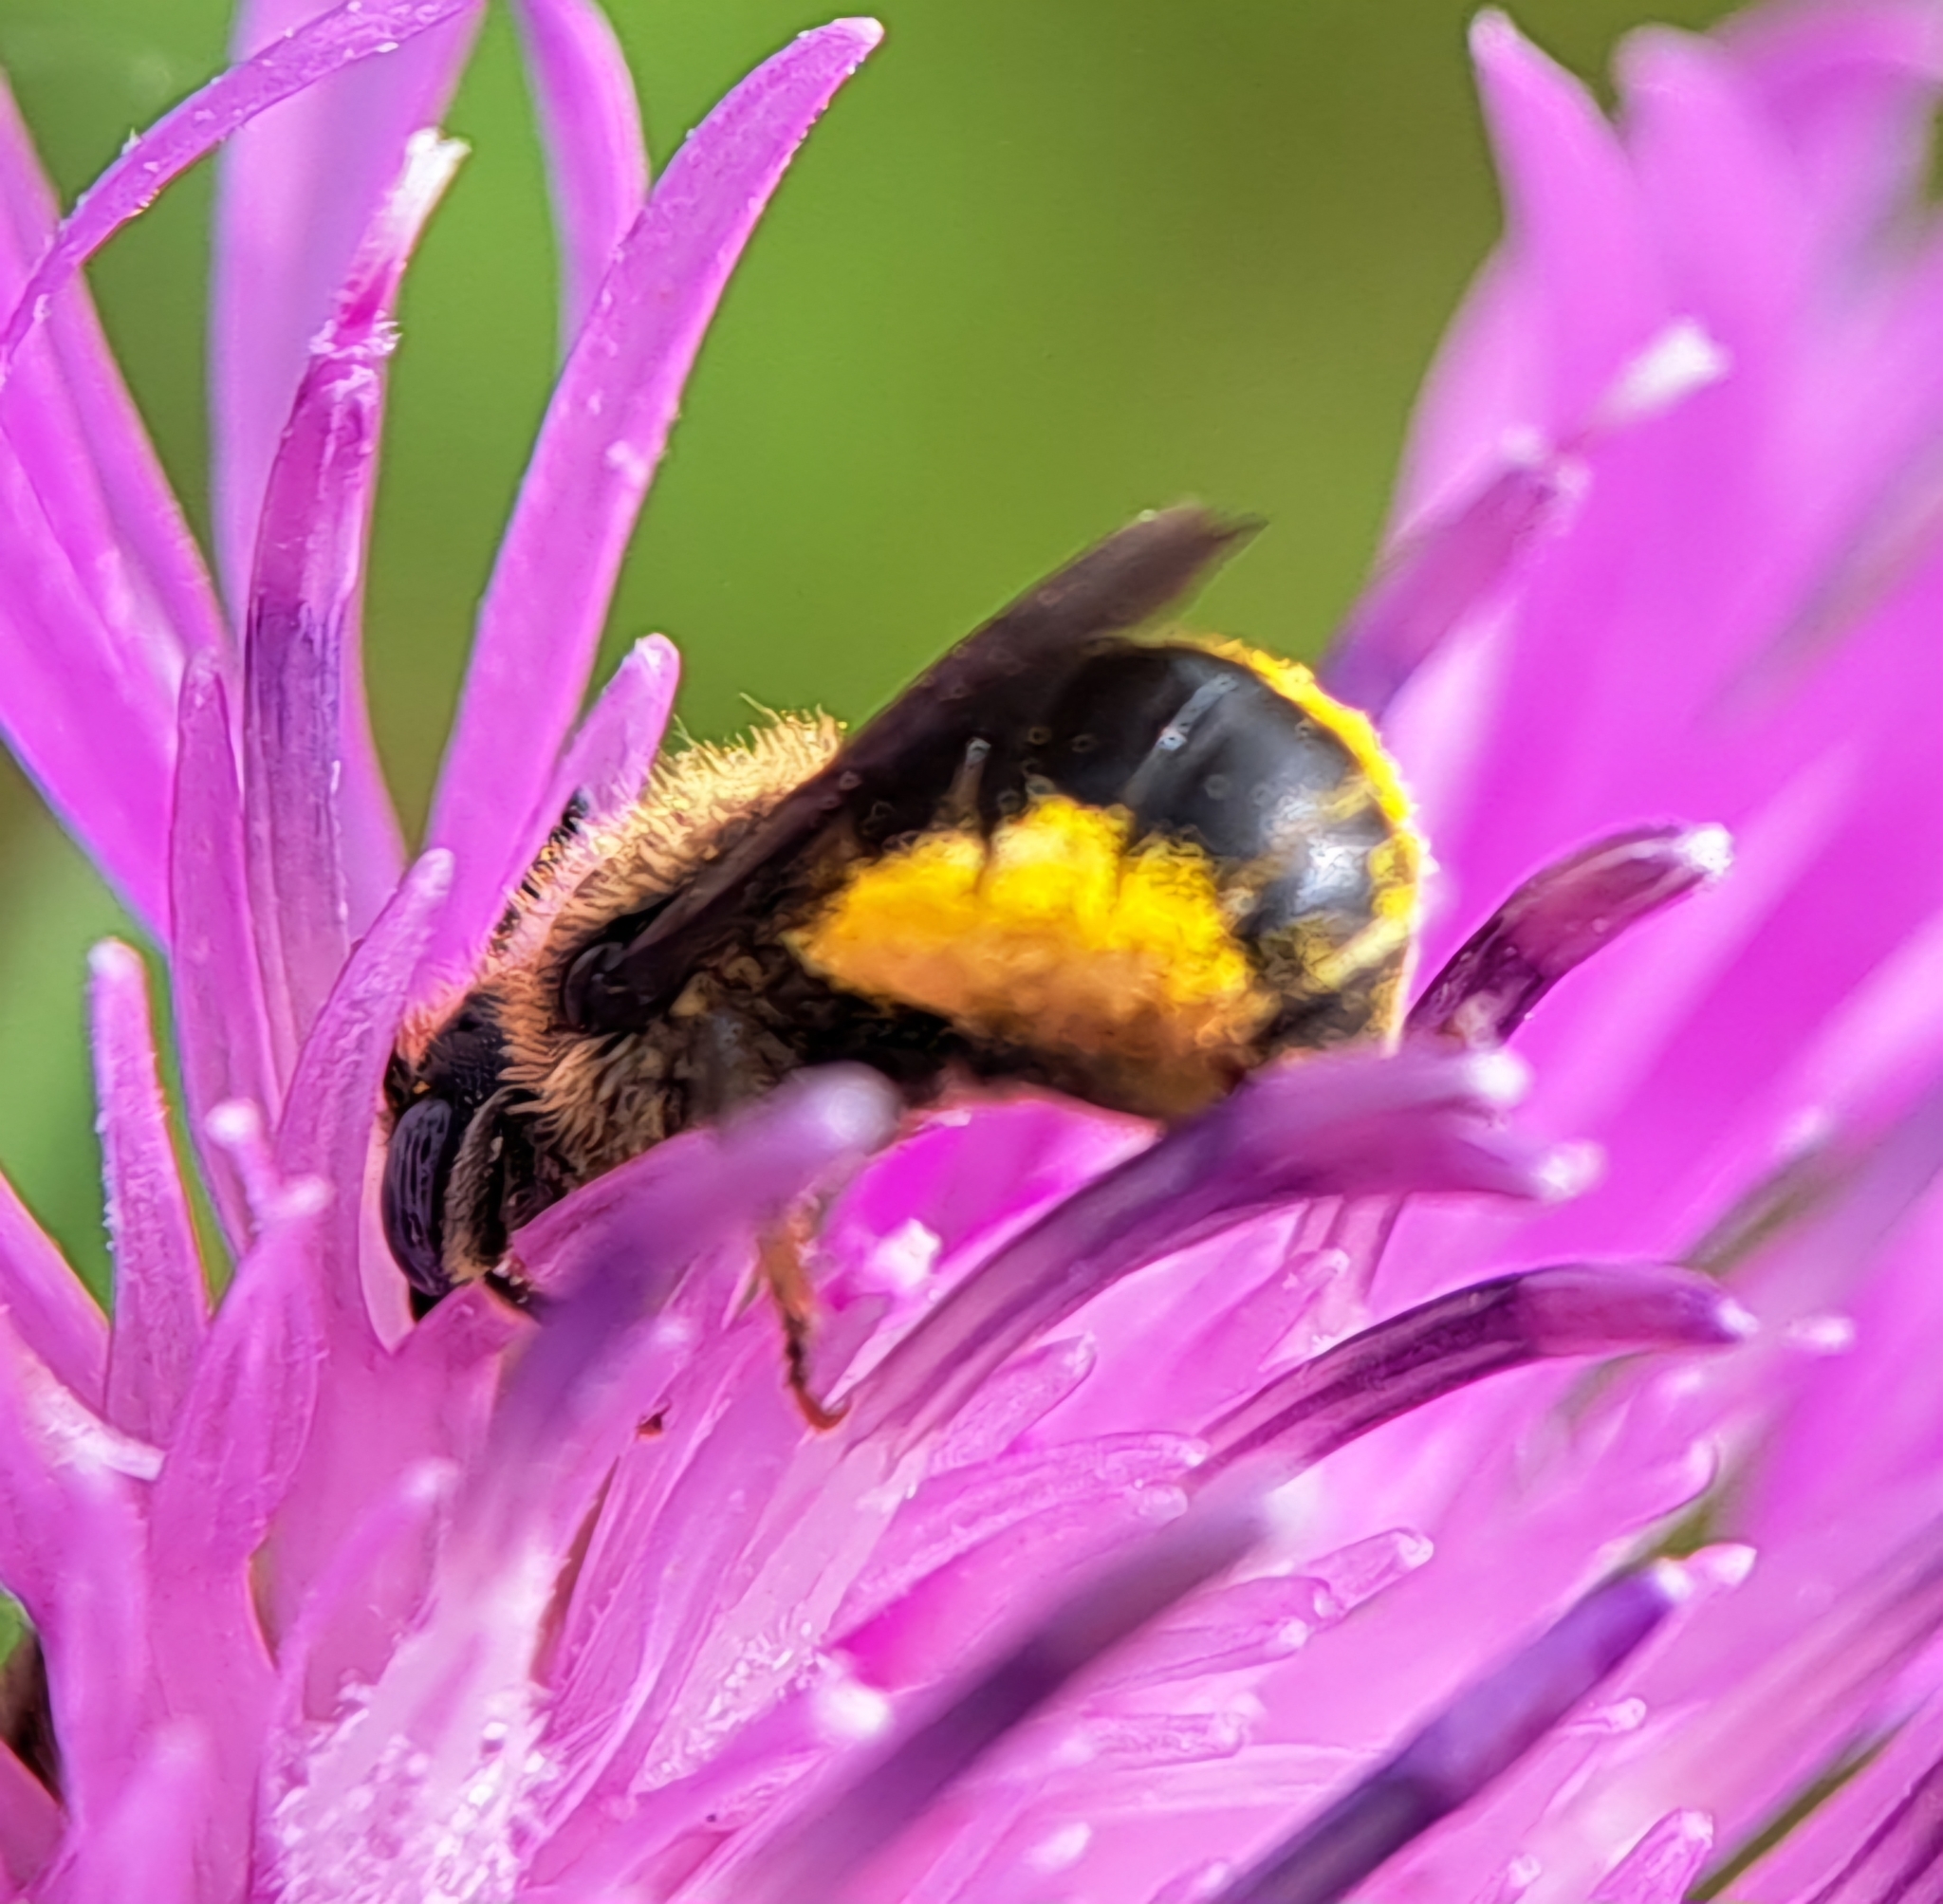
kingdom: Animalia
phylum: Arthropoda
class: Insecta
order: Hymenoptera
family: Megachilidae
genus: Osmia
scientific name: Osmia spinulosa
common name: Spined mason bee
